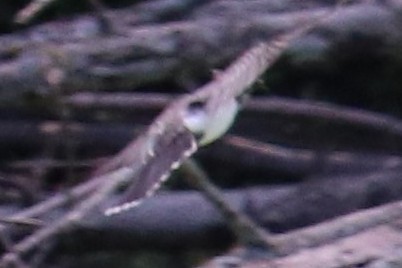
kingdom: Animalia
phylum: Chordata
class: Aves
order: Passeriformes
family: Tyrannidae
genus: Tyrannus
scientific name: Tyrannus tyrannus
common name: Eastern kingbird
